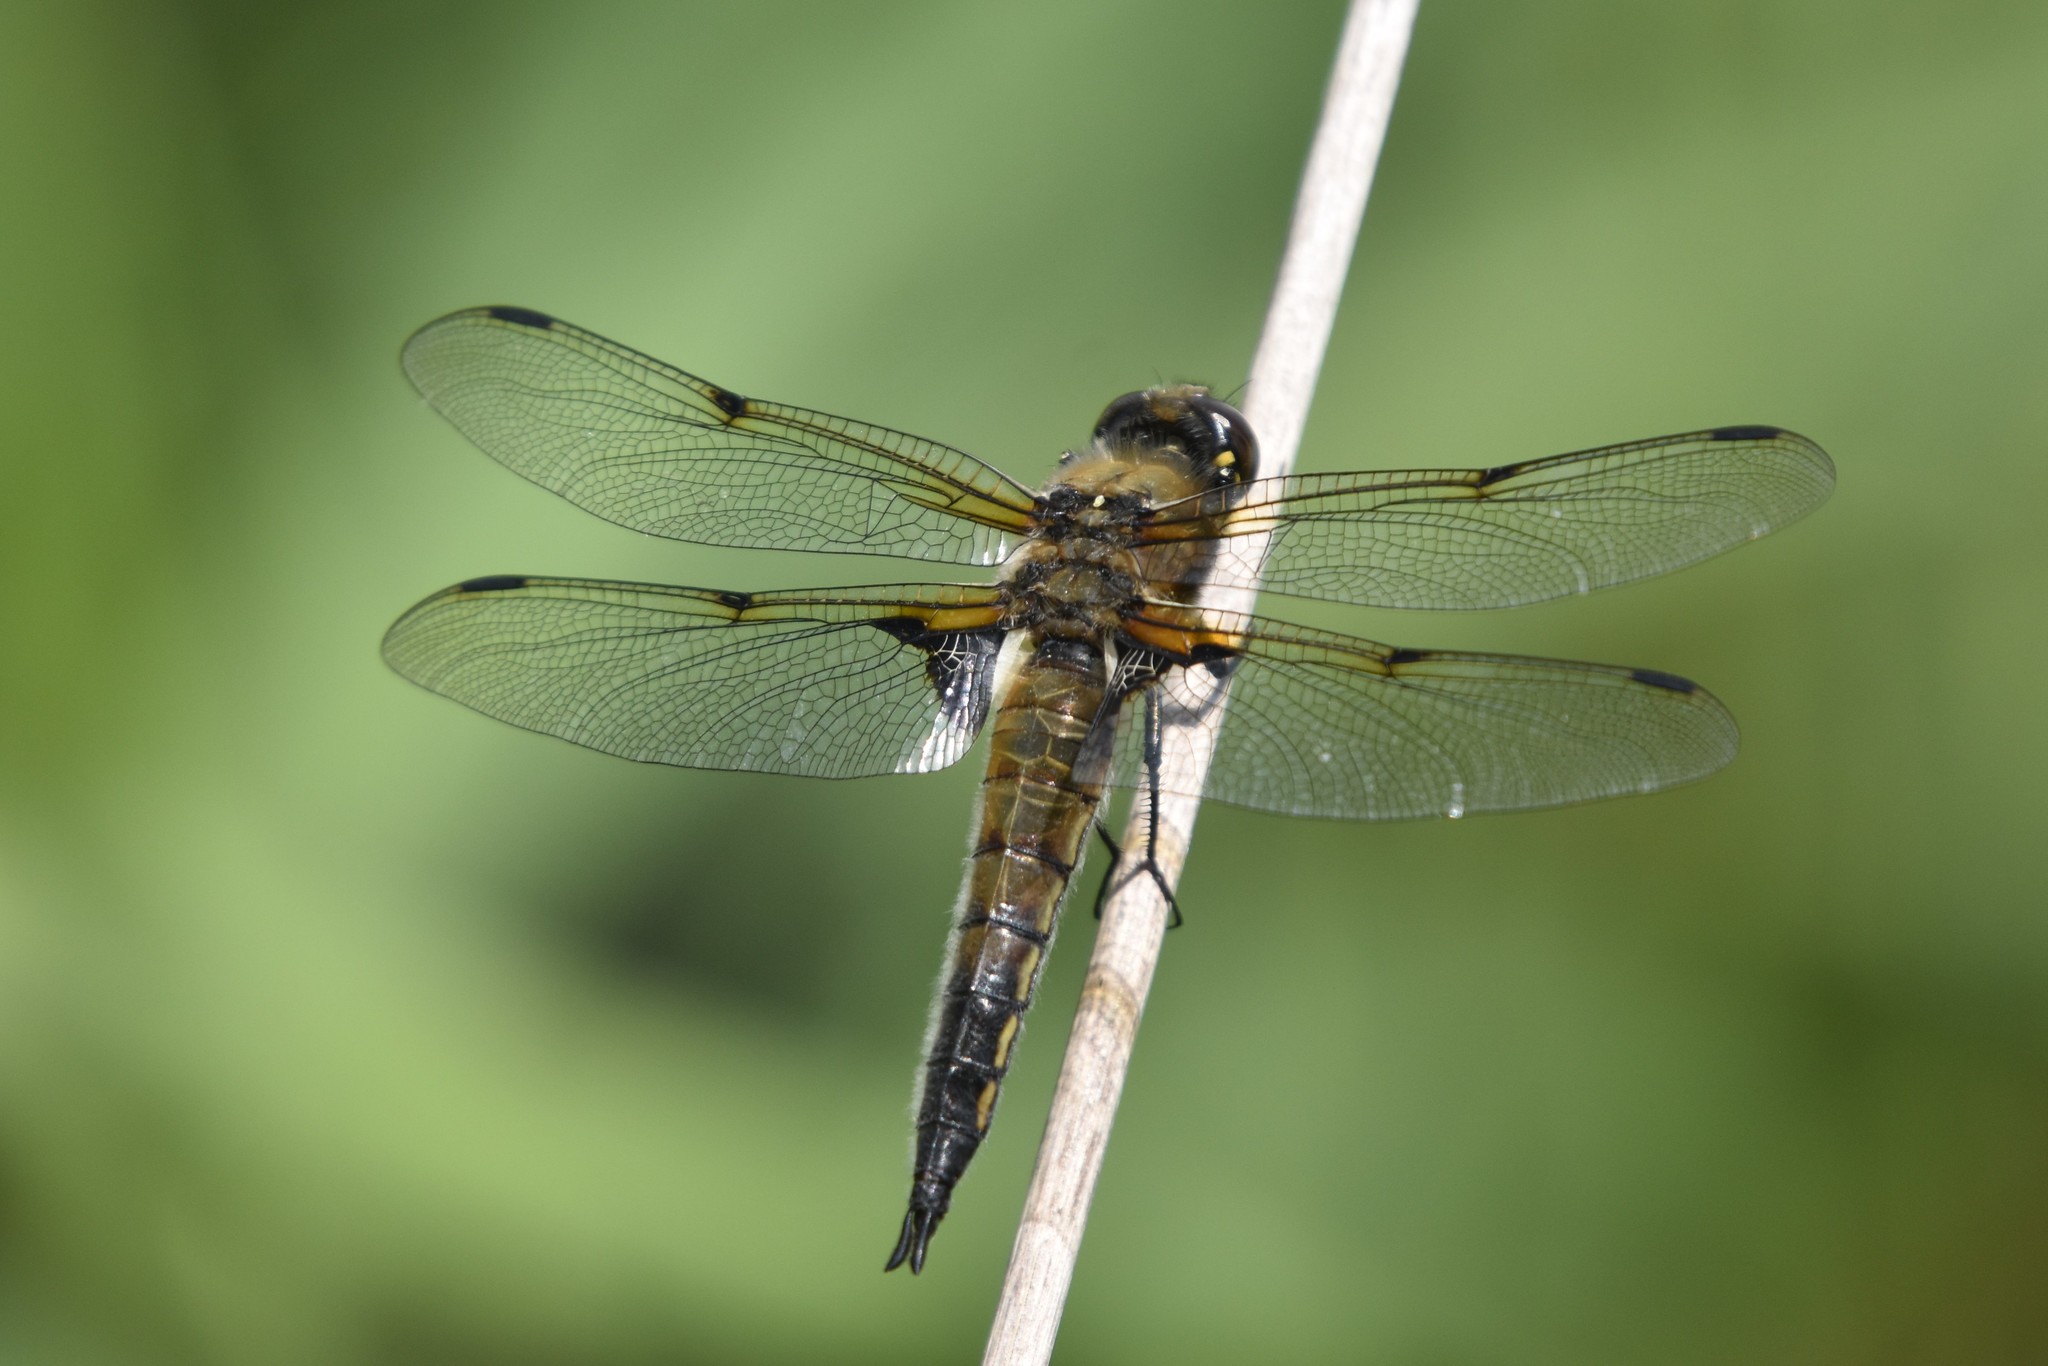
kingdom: Animalia
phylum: Arthropoda
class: Insecta
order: Odonata
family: Libellulidae
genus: Libellula
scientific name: Libellula quadrimaculata
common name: Four-spotted chaser
